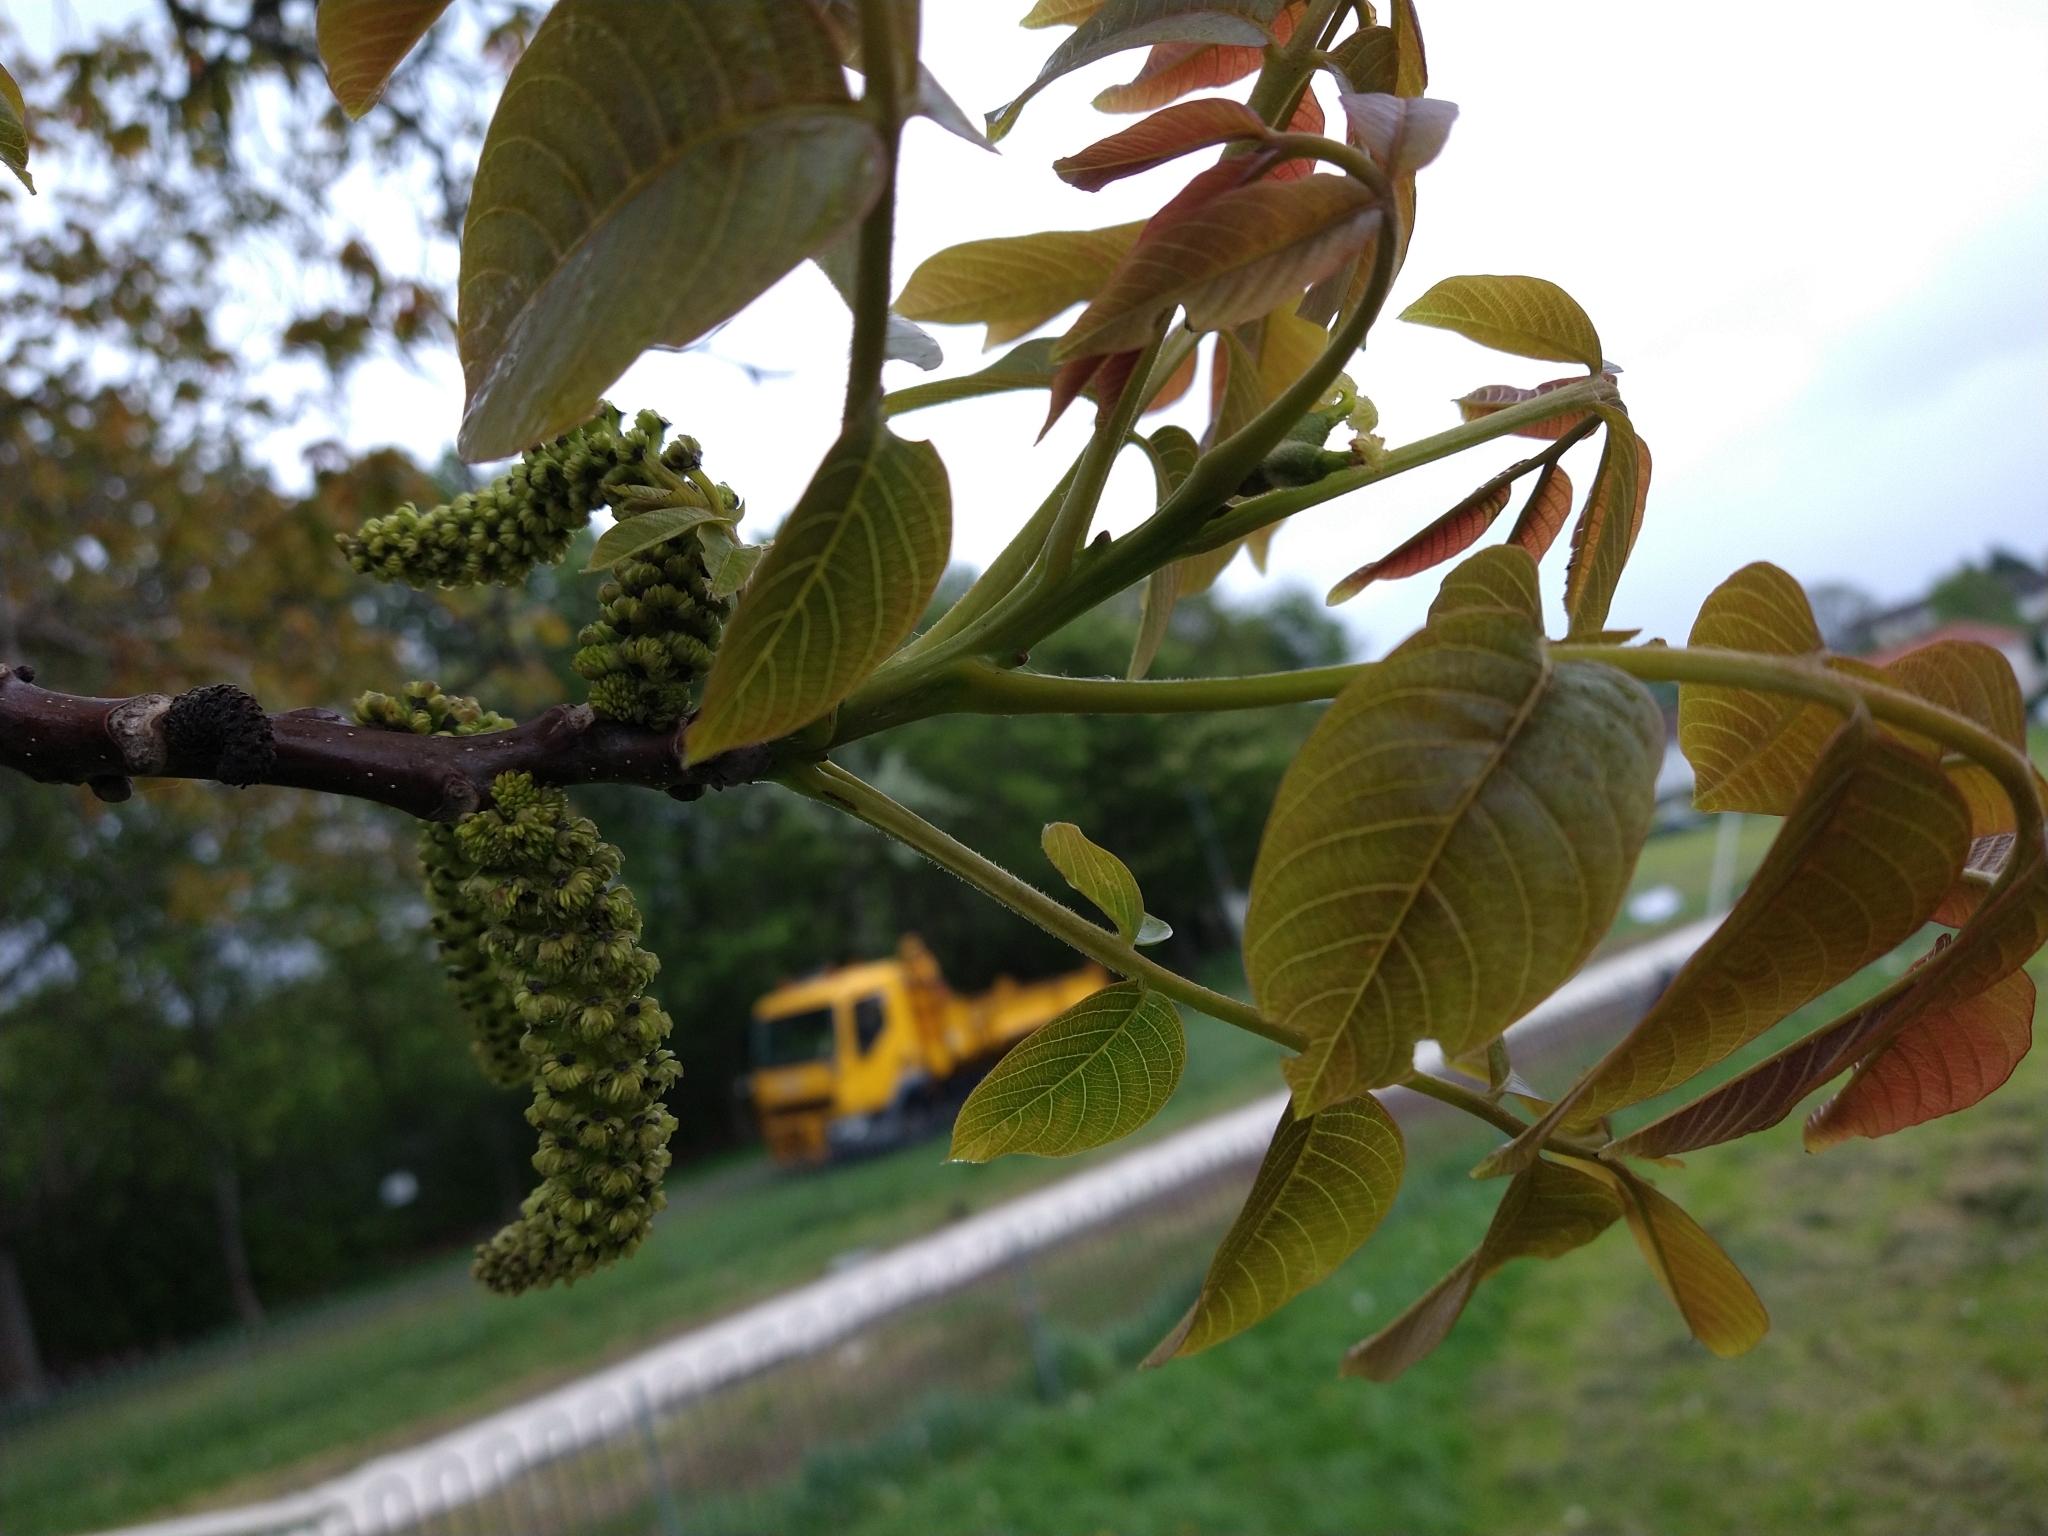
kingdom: Plantae
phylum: Tracheophyta
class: Magnoliopsida
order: Fagales
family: Juglandaceae
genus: Juglans
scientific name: Juglans regia
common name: Walnut
